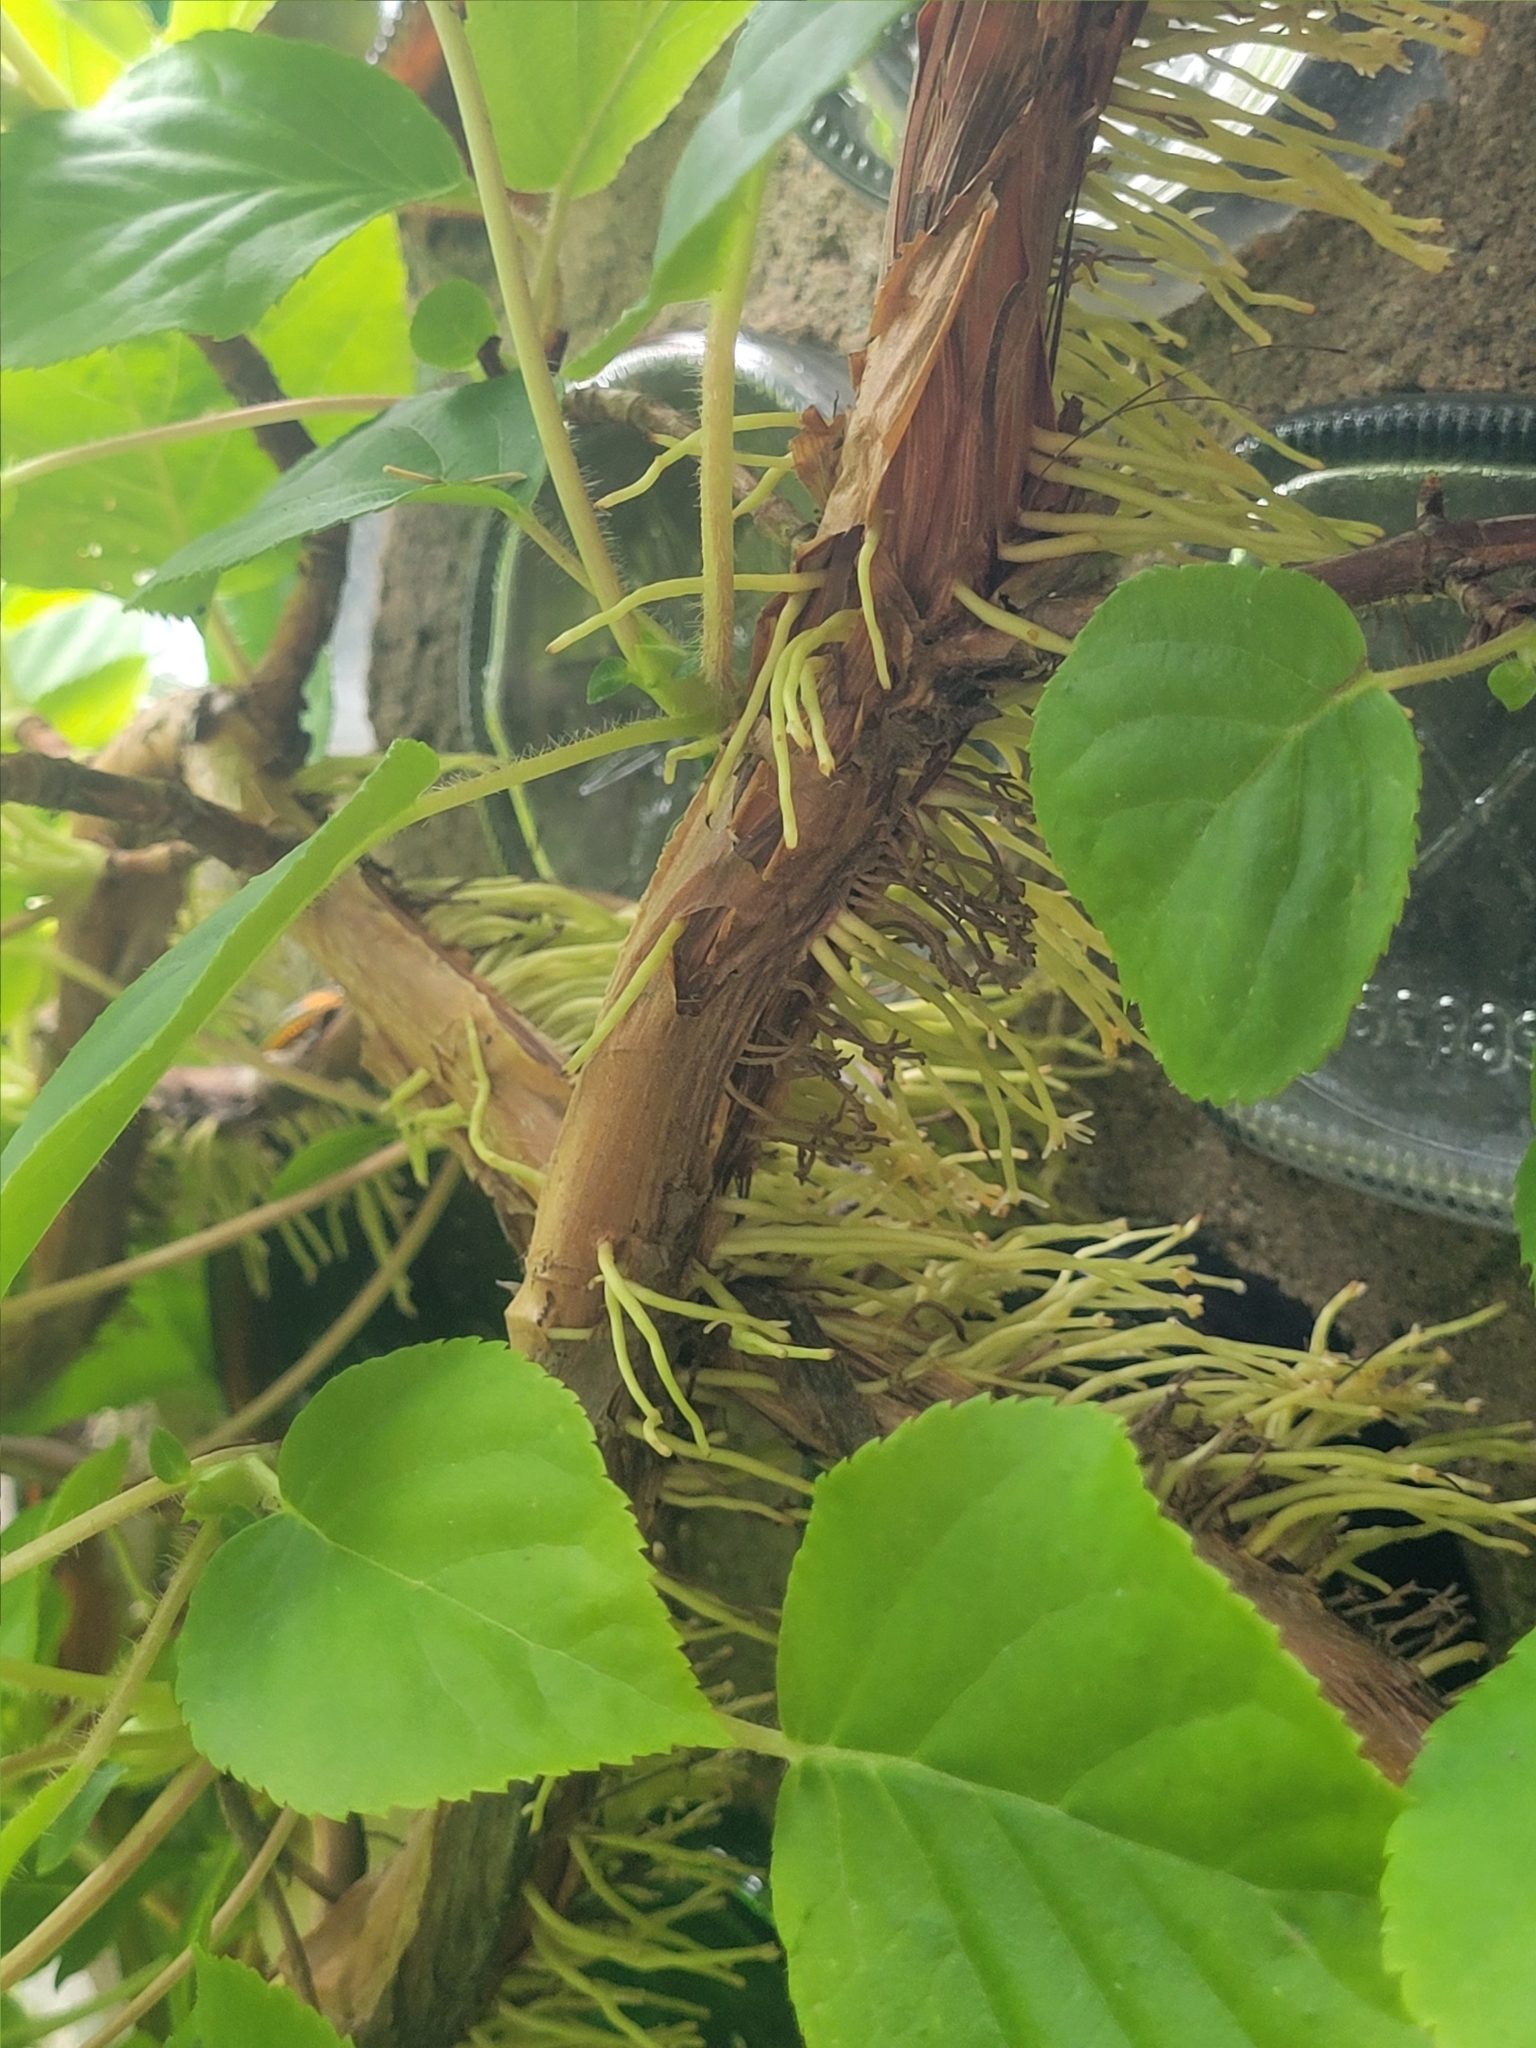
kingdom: Plantae
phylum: Tracheophyta
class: Magnoliopsida
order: Celastrales
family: Celastraceae
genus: Celastrus
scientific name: Celastrus orbiculatus
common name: Oriental bittersweet
